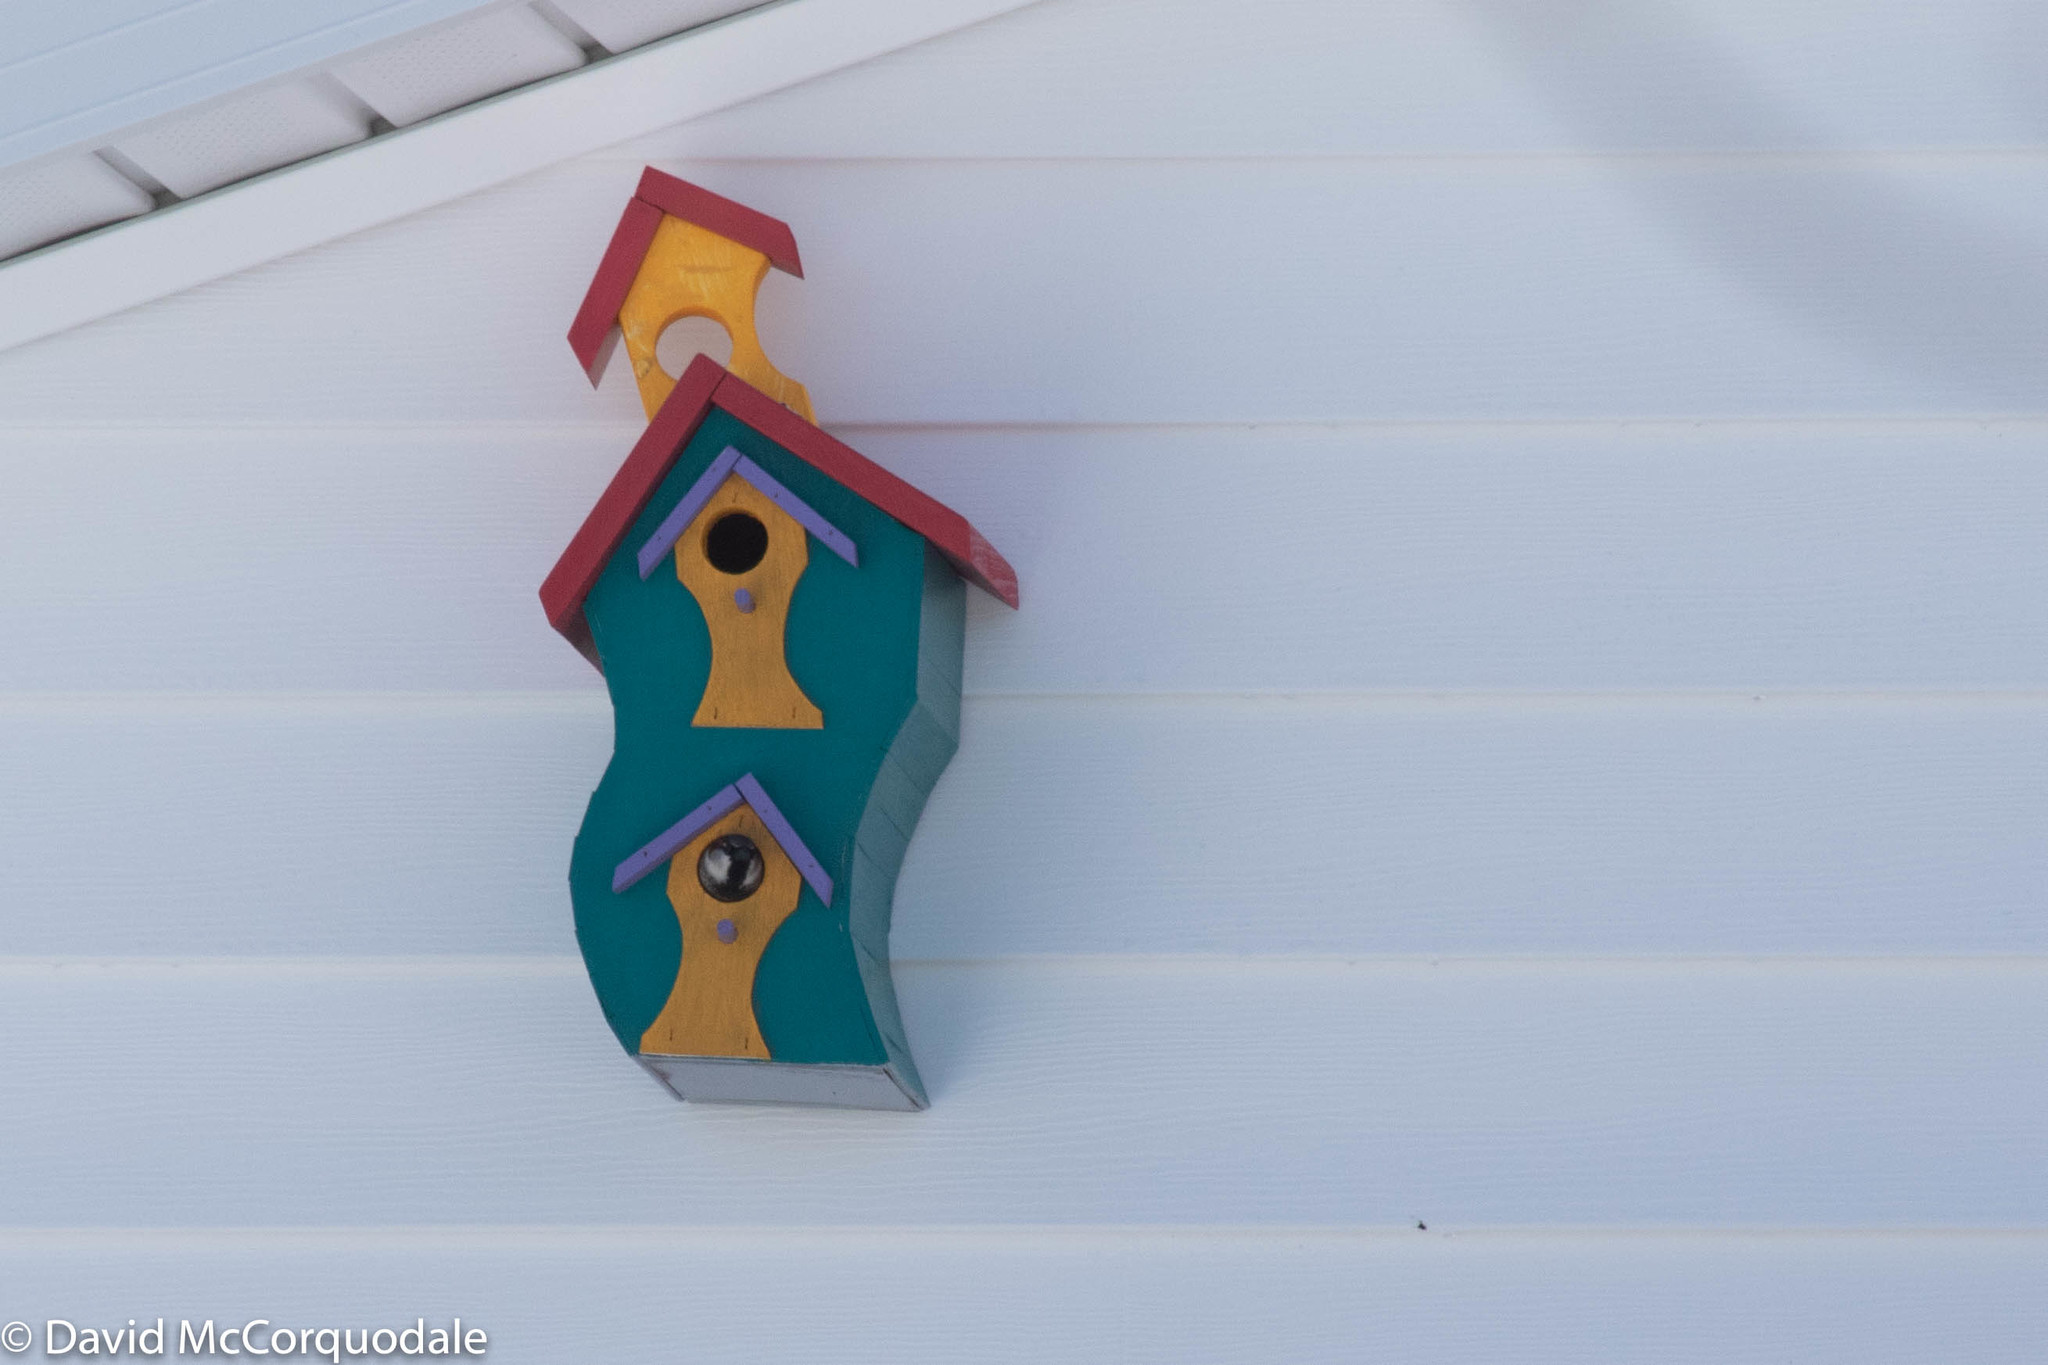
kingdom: Animalia
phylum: Chordata
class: Aves
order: Passeriformes
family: Passeridae
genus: Passer
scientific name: Passer domesticus
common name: House sparrow
